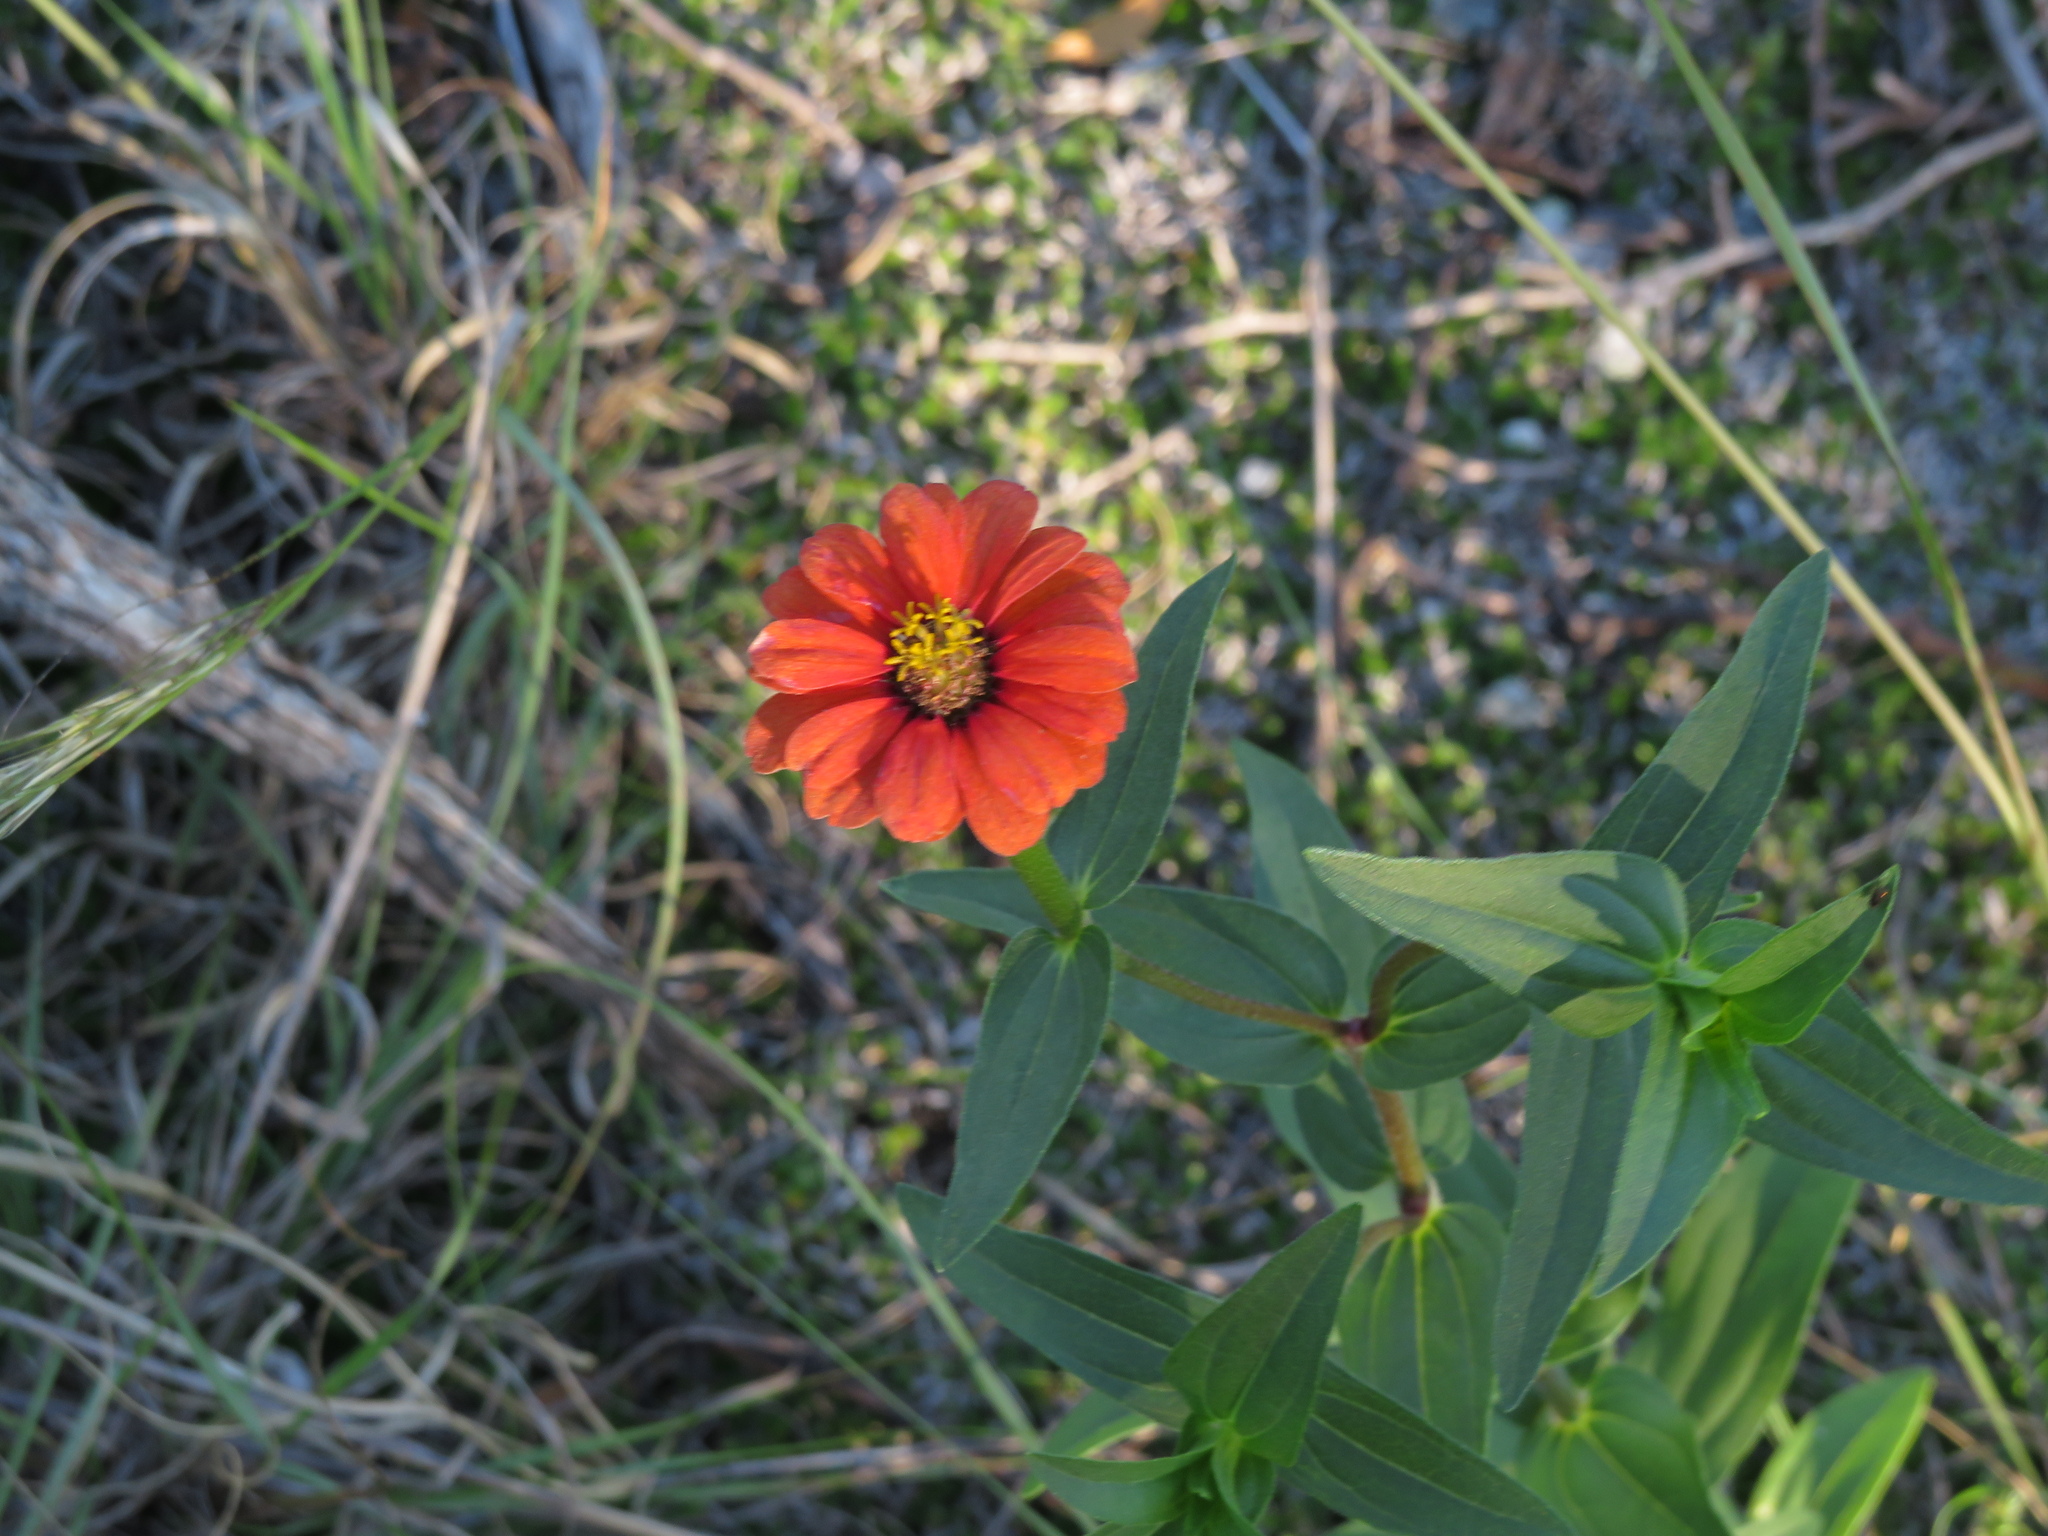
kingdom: Plantae
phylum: Tracheophyta
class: Magnoliopsida
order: Asterales
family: Asteraceae
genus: Zinnia
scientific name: Zinnia peruviana
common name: Peruvian zinnia
